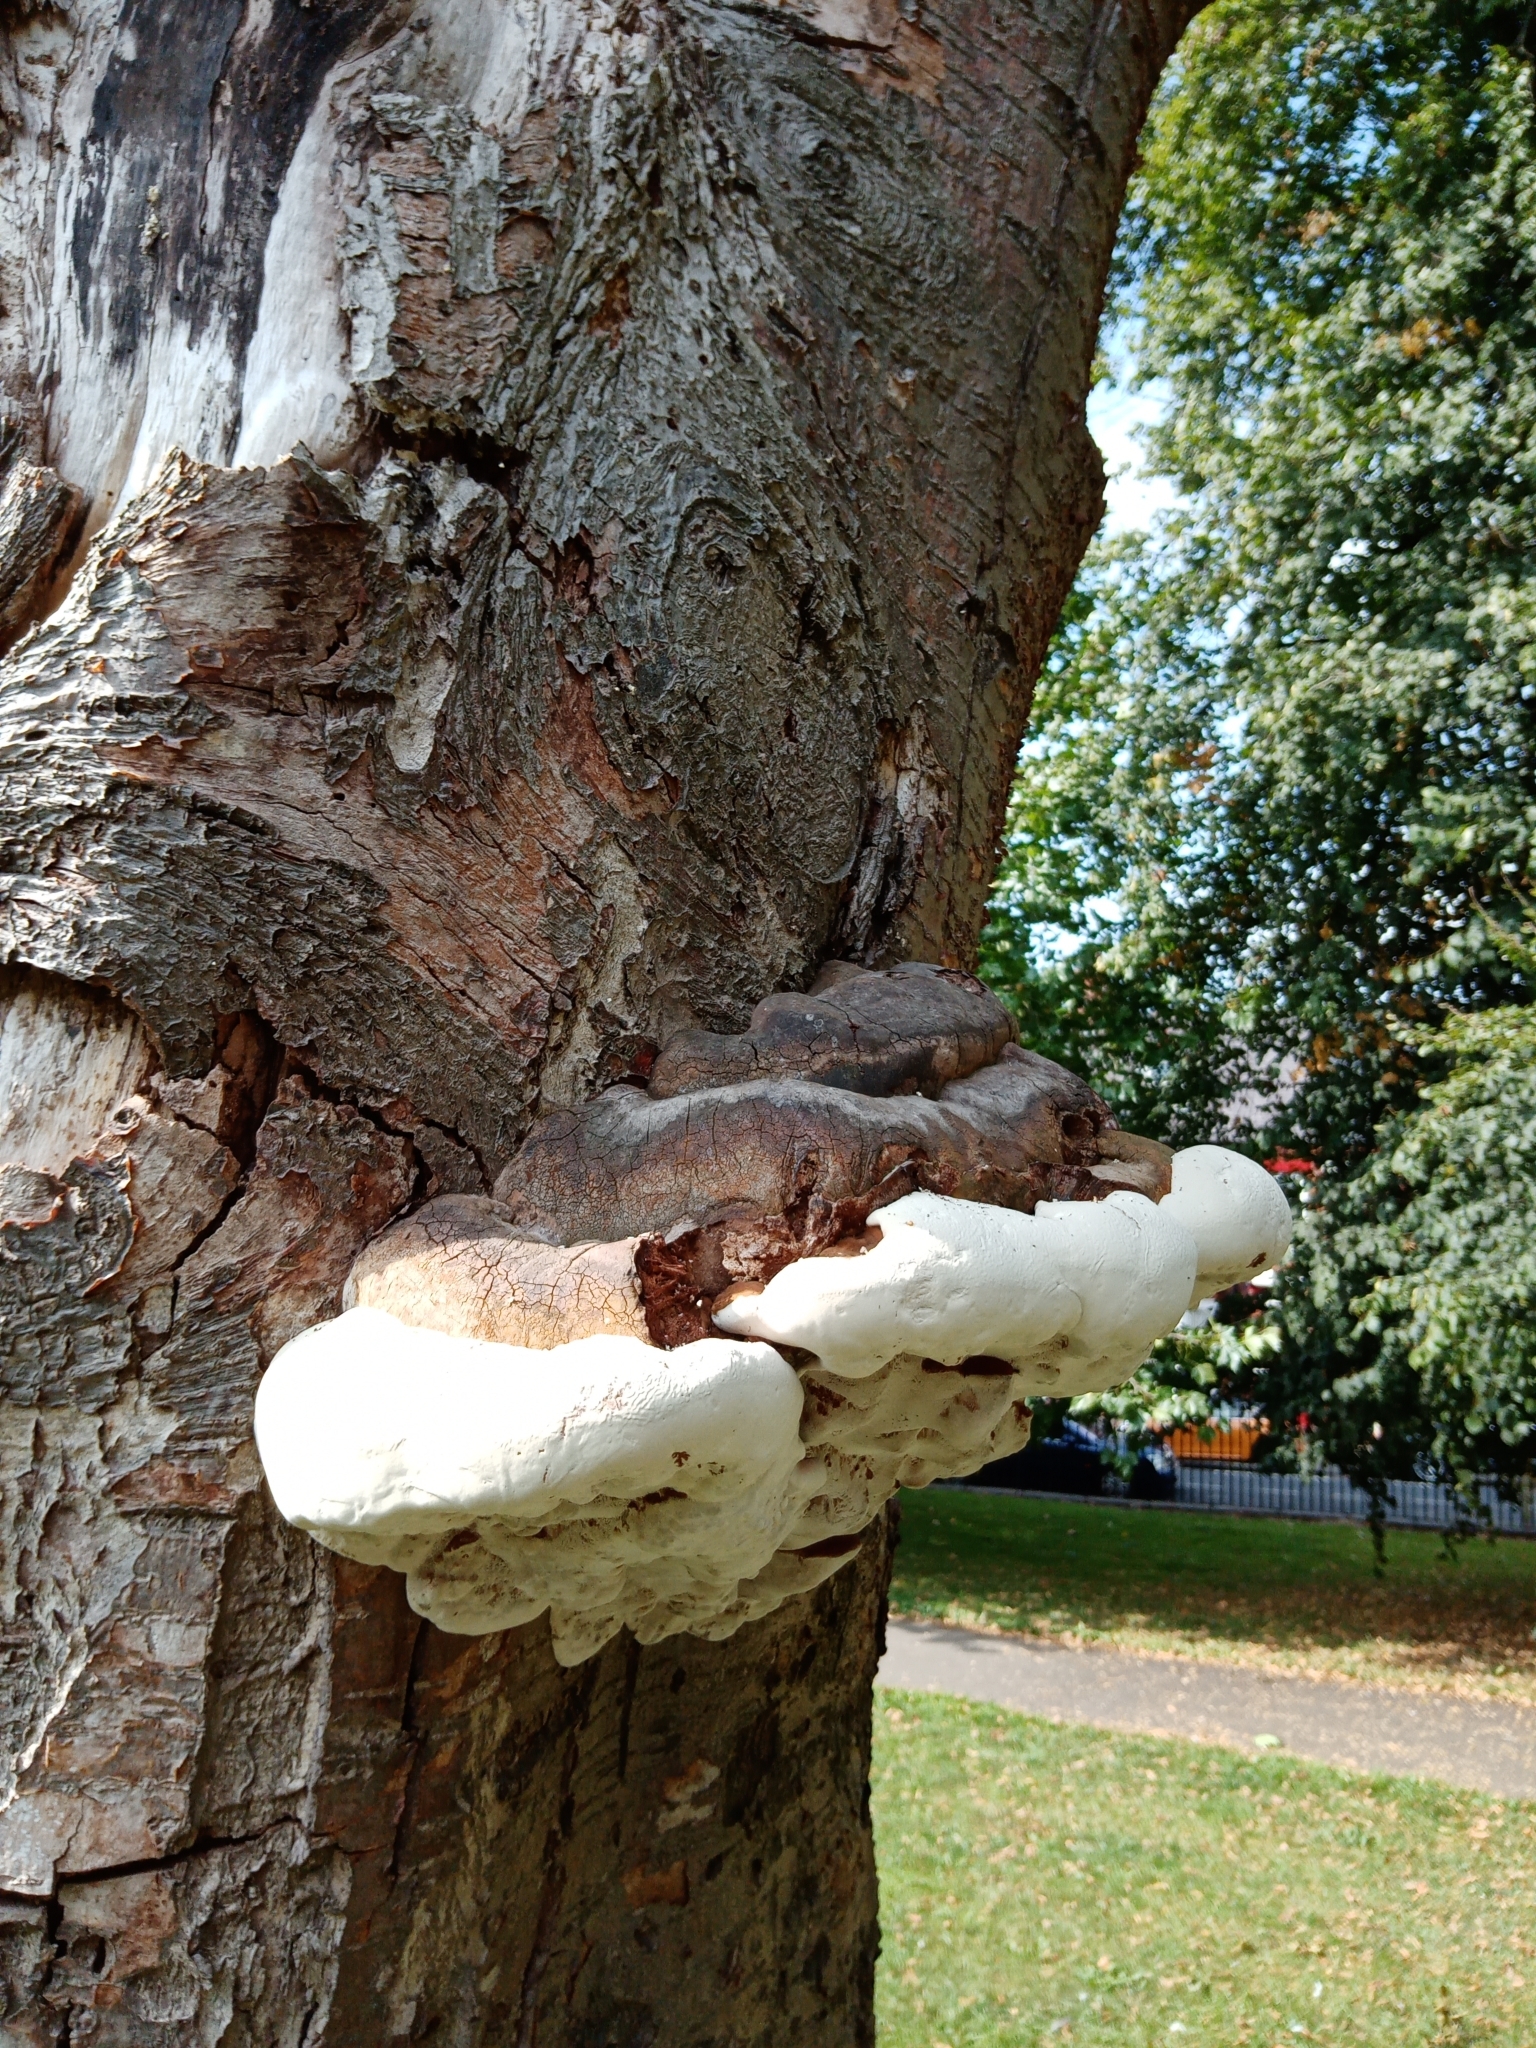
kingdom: Fungi
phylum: Basidiomycota
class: Agaricomycetes
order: Polyporales
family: Polyporaceae
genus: Fomes
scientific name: Fomes fomentarius
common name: Hoof fungus
